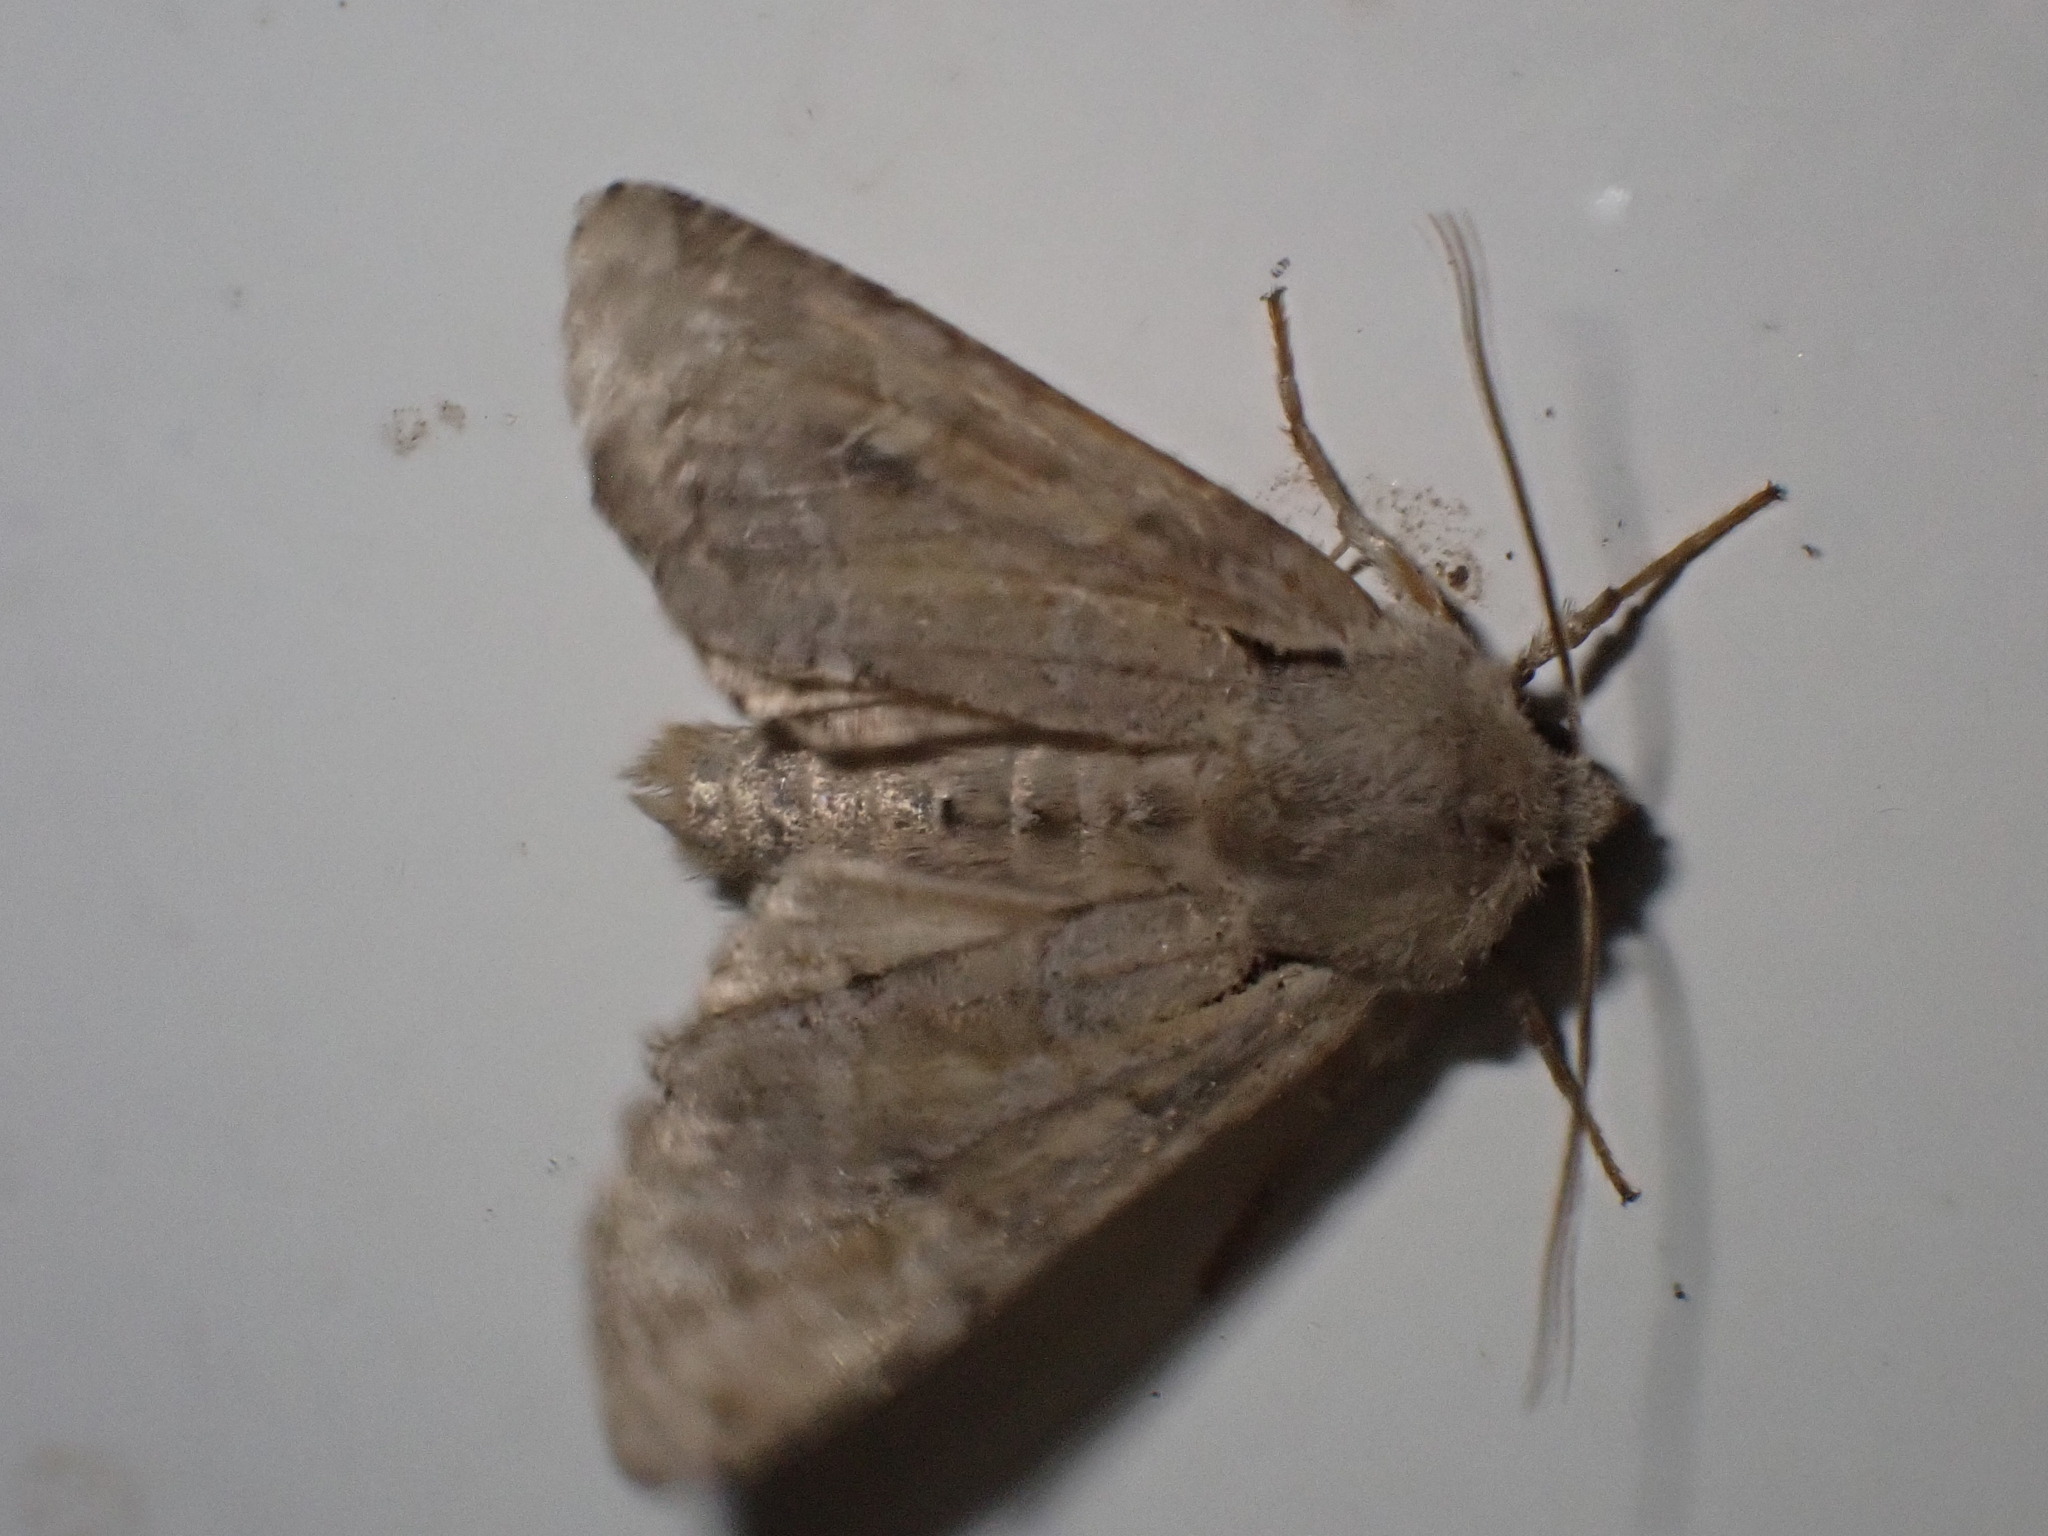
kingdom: Animalia
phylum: Arthropoda
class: Insecta
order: Lepidoptera
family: Noctuidae
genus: Apamea
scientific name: Apamea sordens
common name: Rustic shoulder-knot
